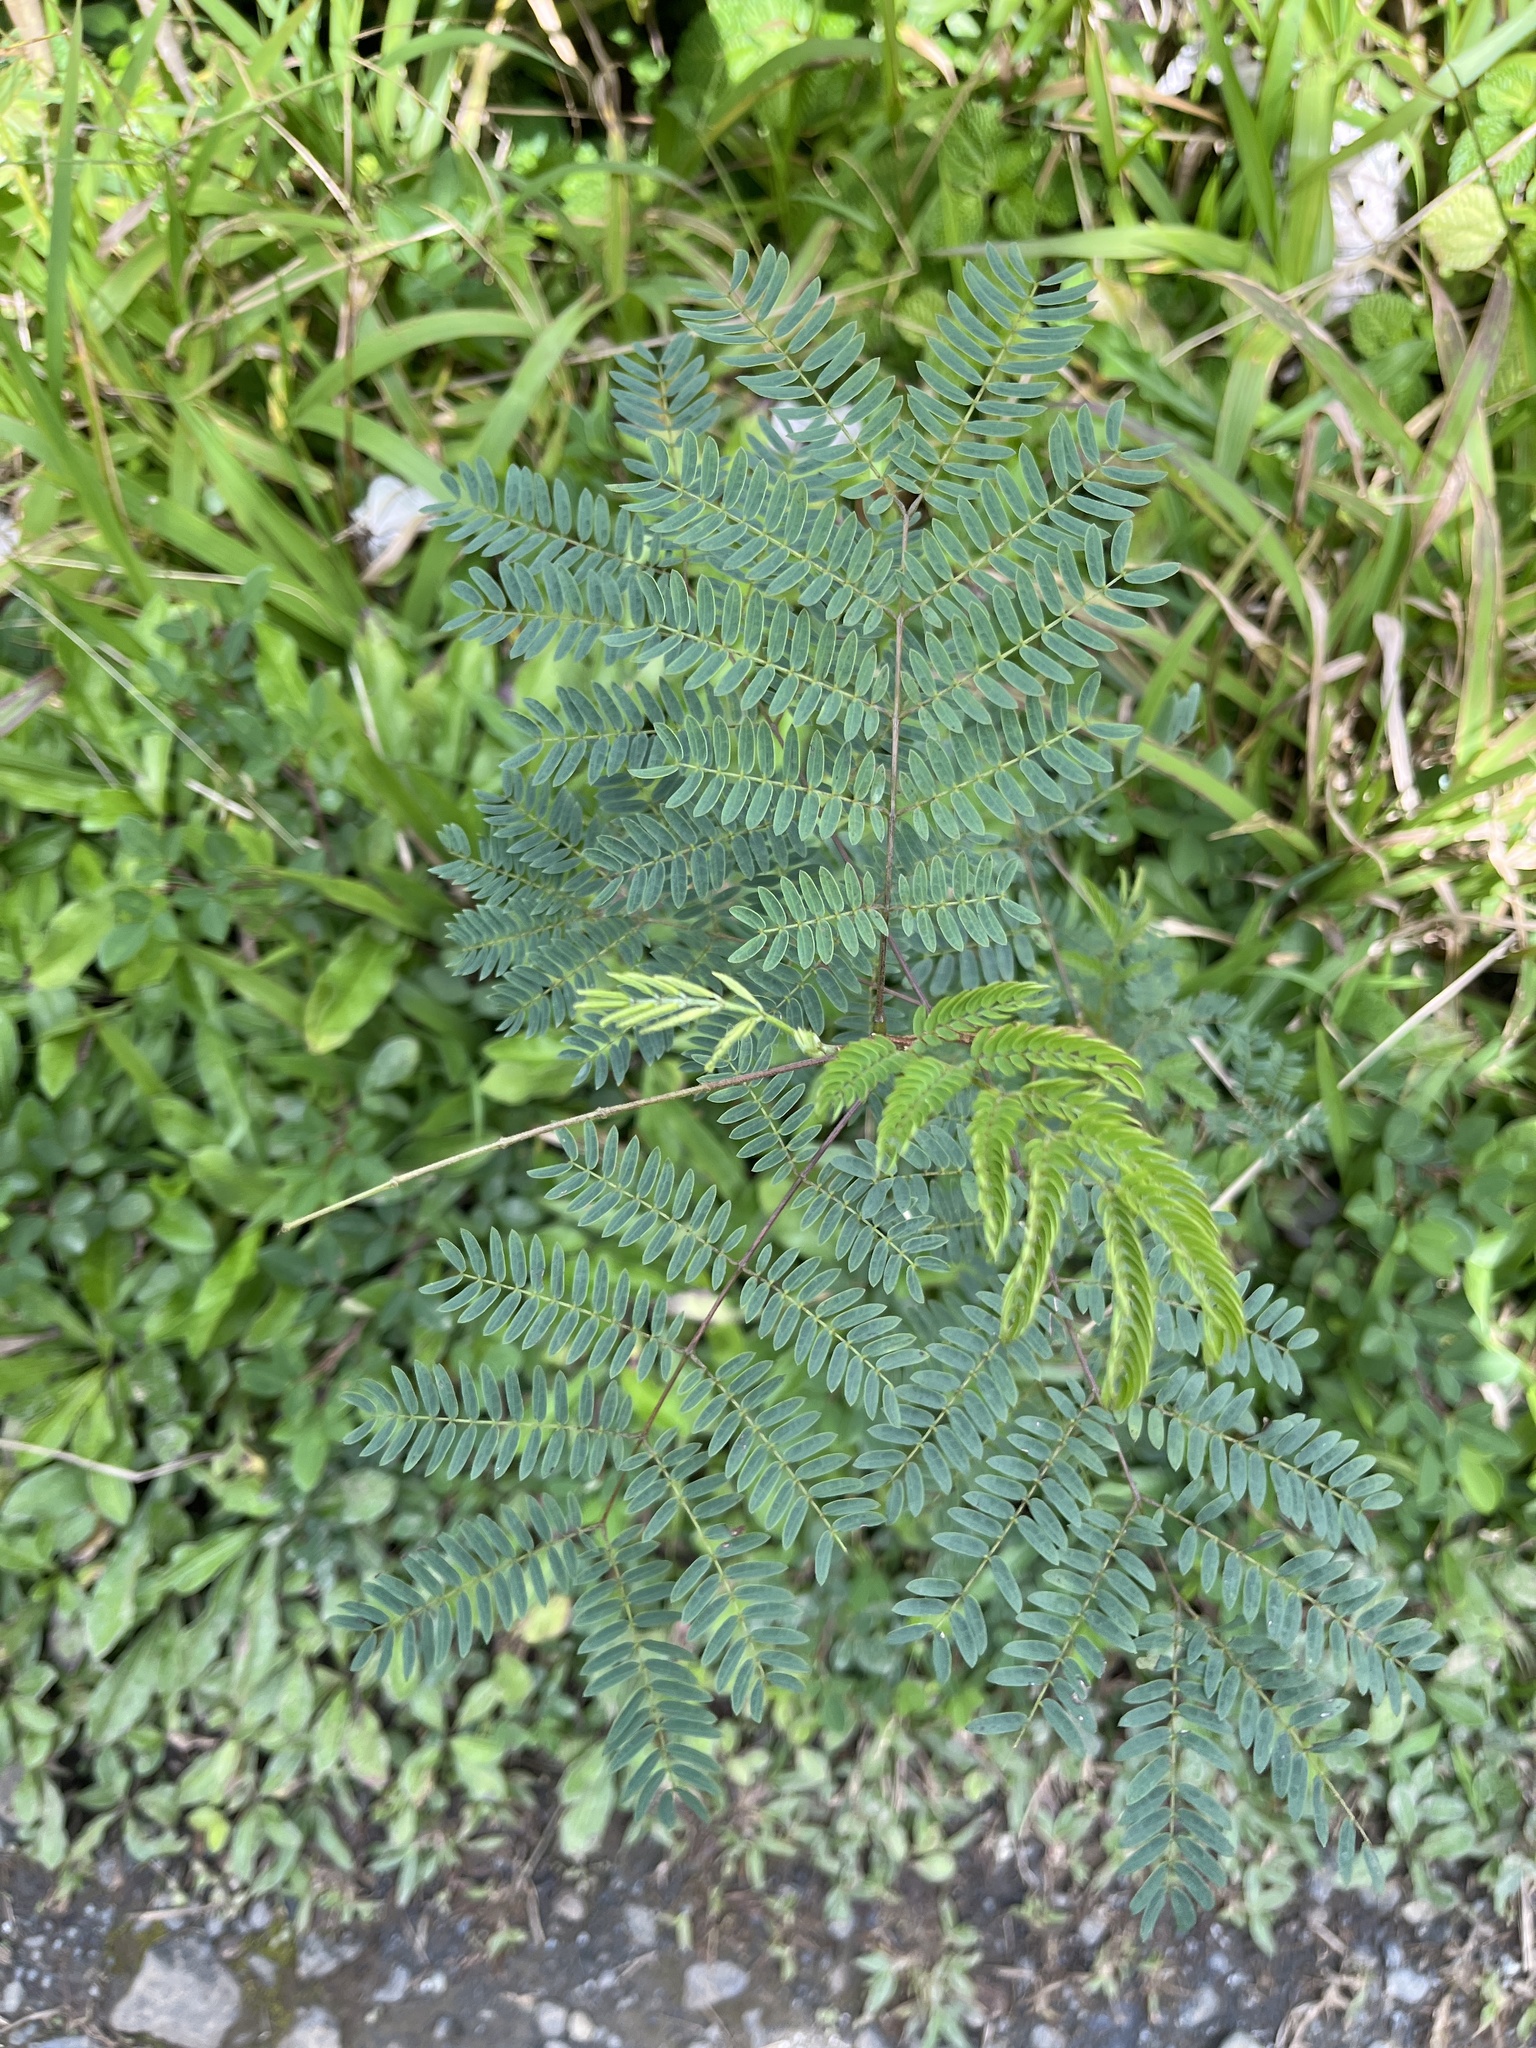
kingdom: Plantae
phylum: Tracheophyta
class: Magnoliopsida
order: Fabales
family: Fabaceae
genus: Leucaena
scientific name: Leucaena leucocephala
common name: White leadtree
